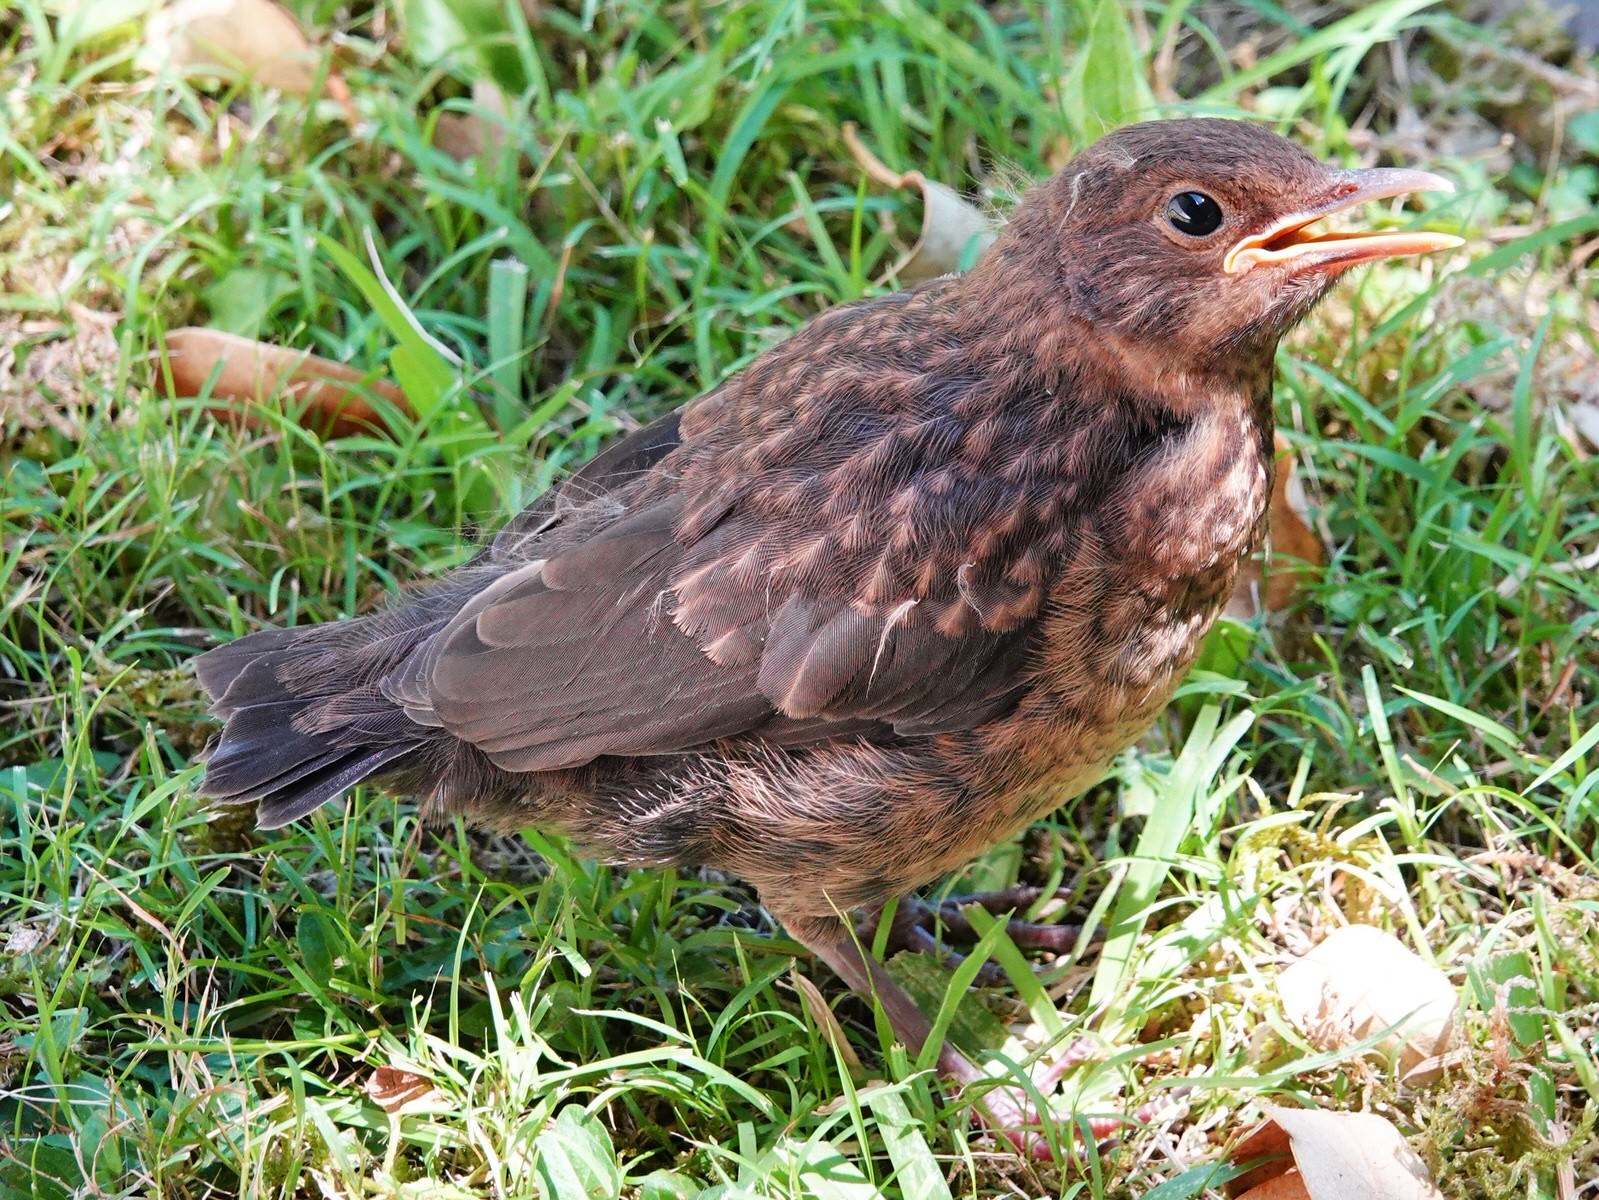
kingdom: Animalia
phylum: Chordata
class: Aves
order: Passeriformes
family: Turdidae
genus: Turdus
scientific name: Turdus merula
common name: Common blackbird
